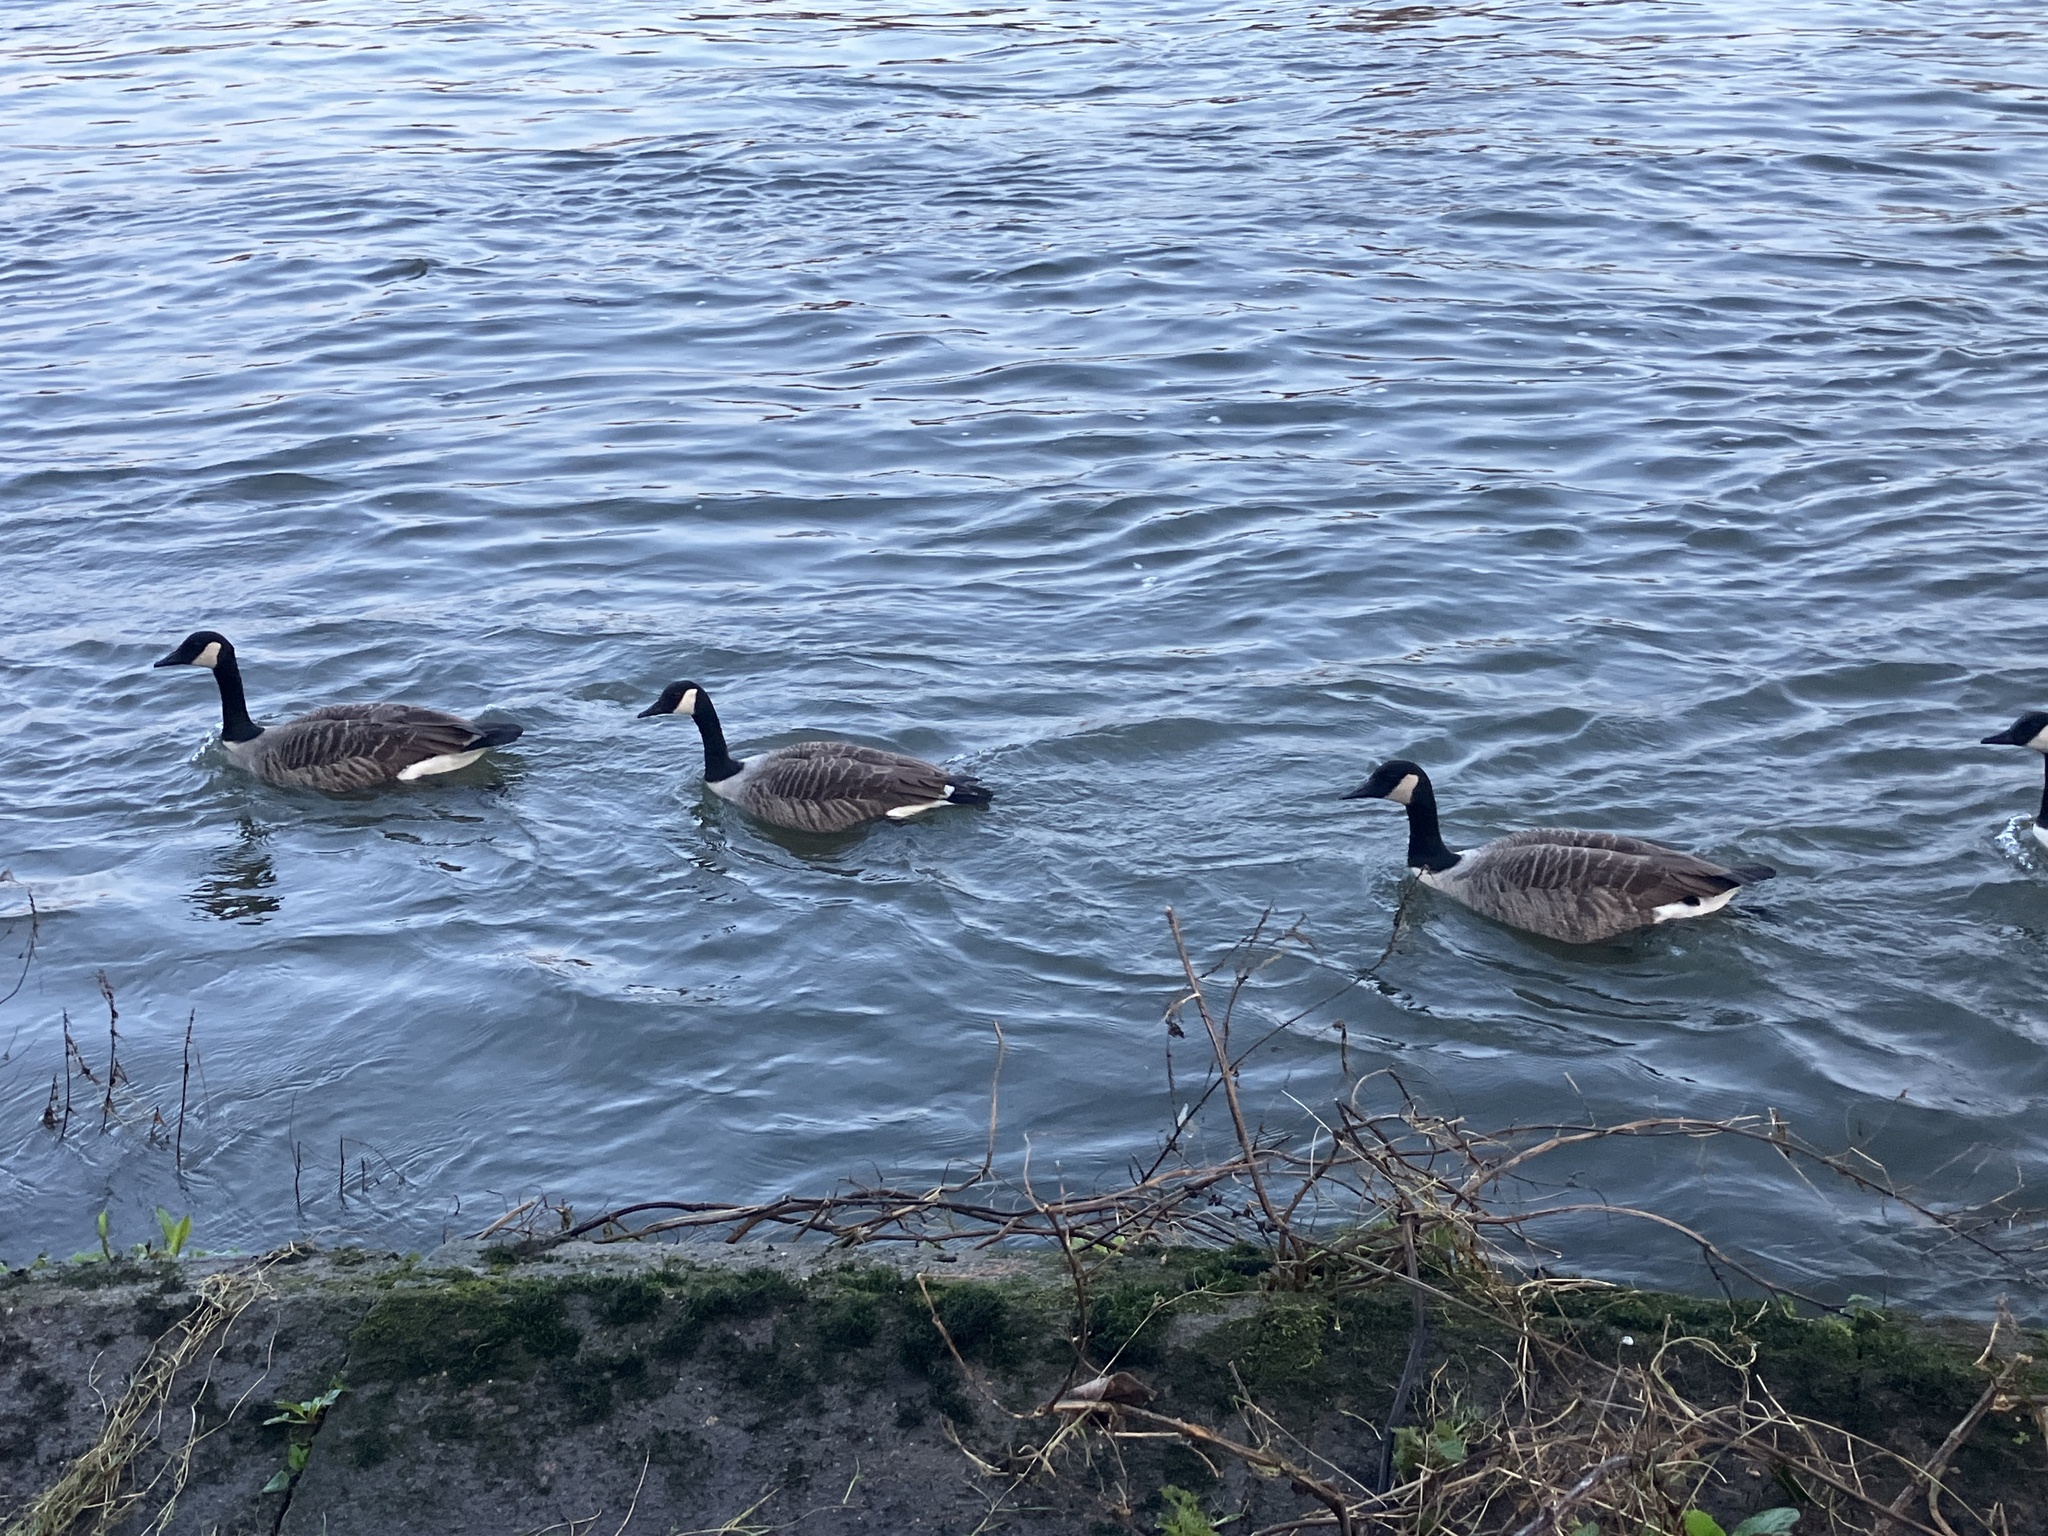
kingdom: Animalia
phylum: Chordata
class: Aves
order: Anseriformes
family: Anatidae
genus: Branta
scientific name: Branta canadensis
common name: Canada goose
